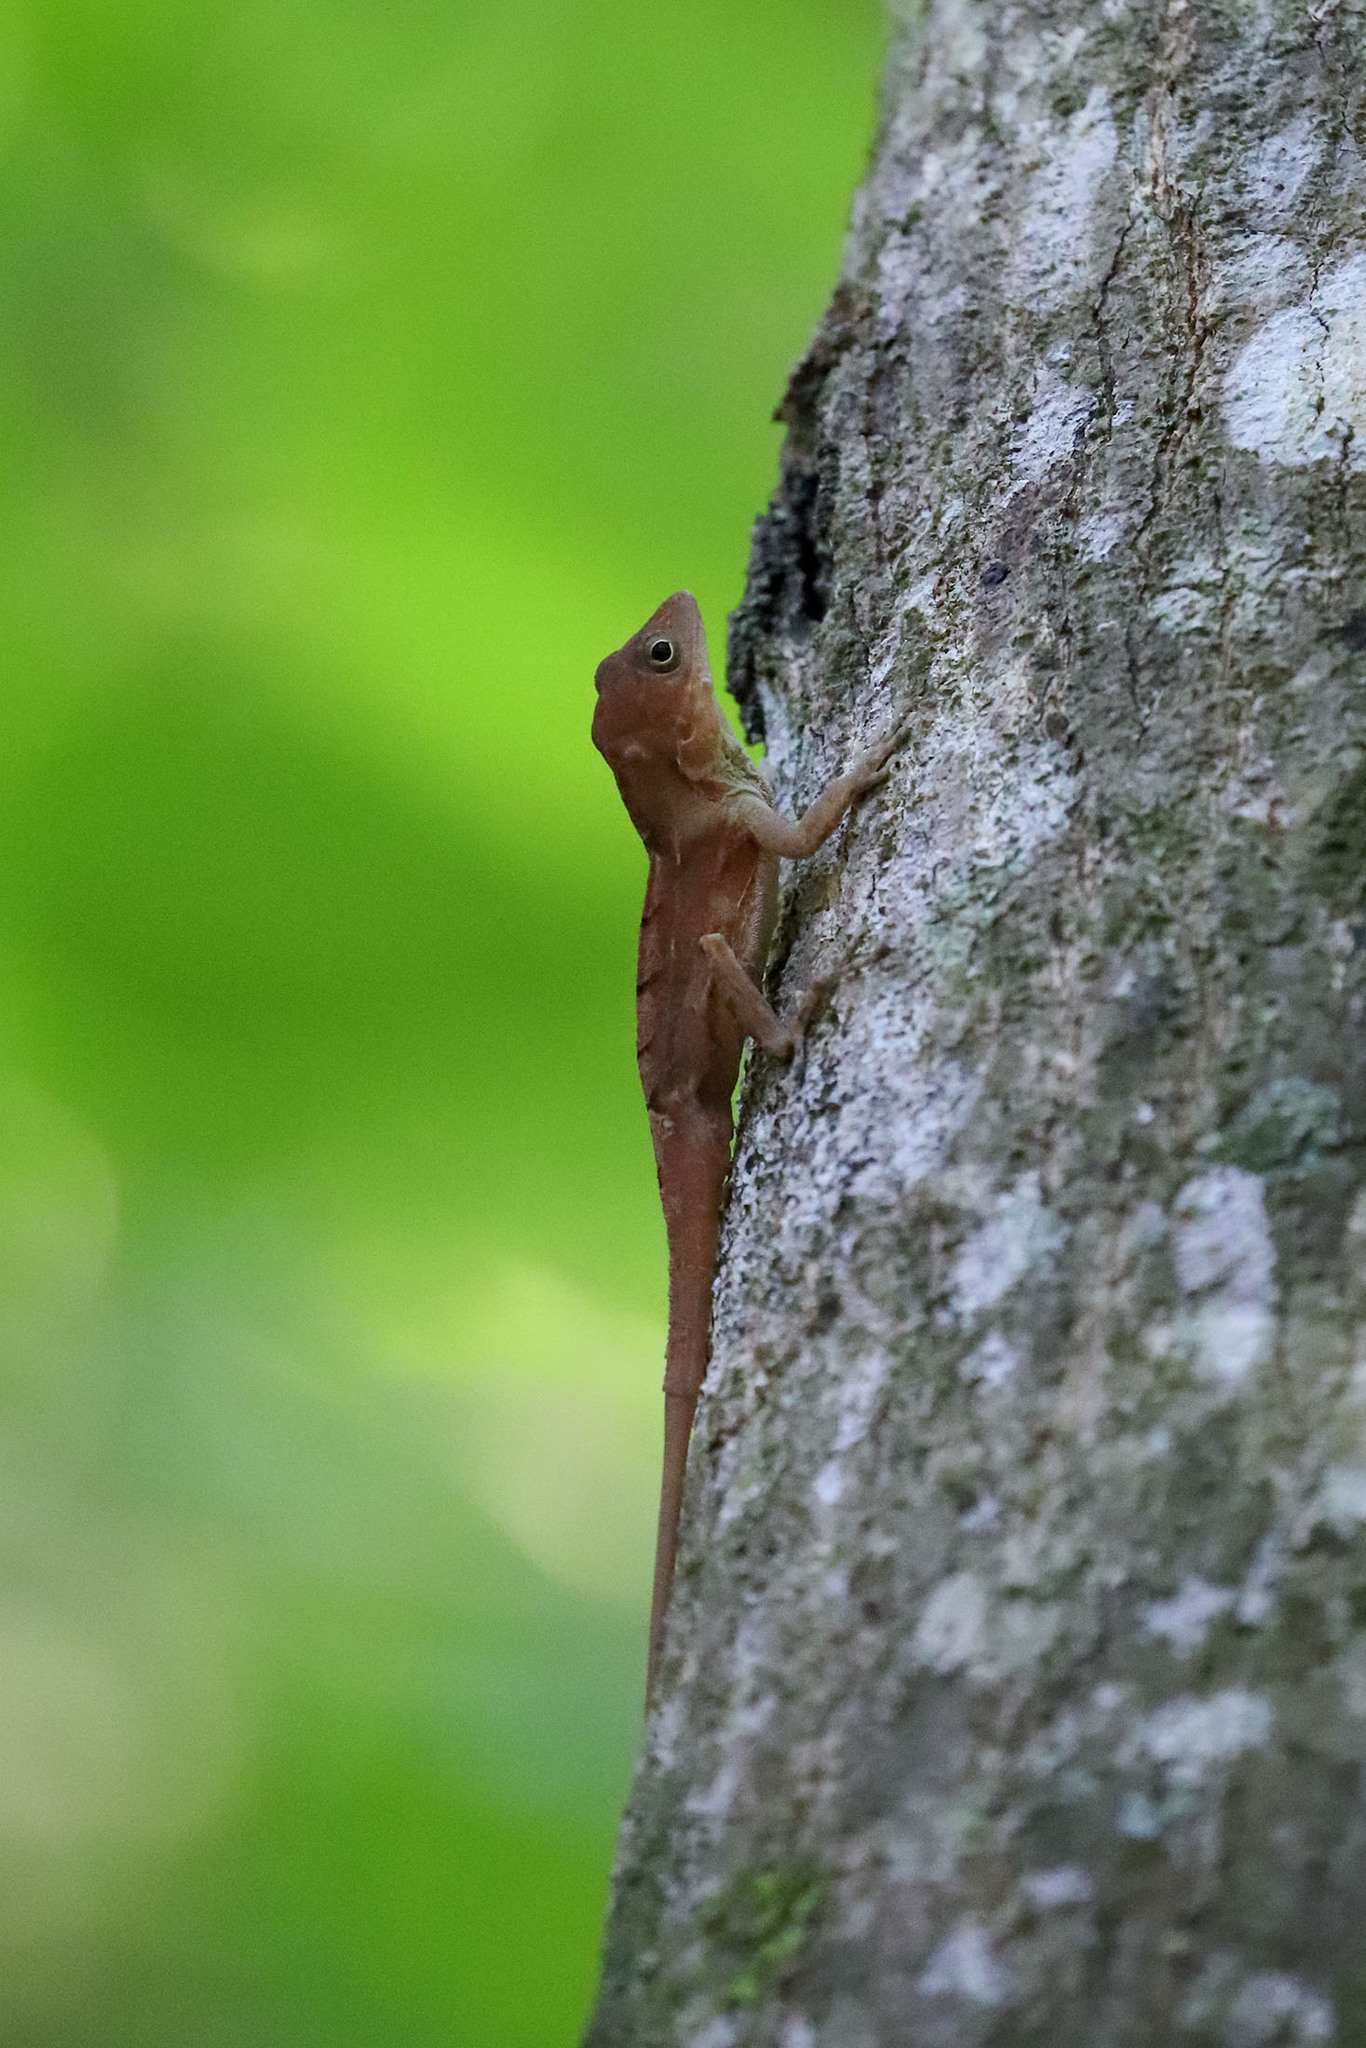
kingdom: Animalia
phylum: Chordata
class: Squamata
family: Dactyloidae
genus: Anolis
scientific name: Anolis hispaniolae
